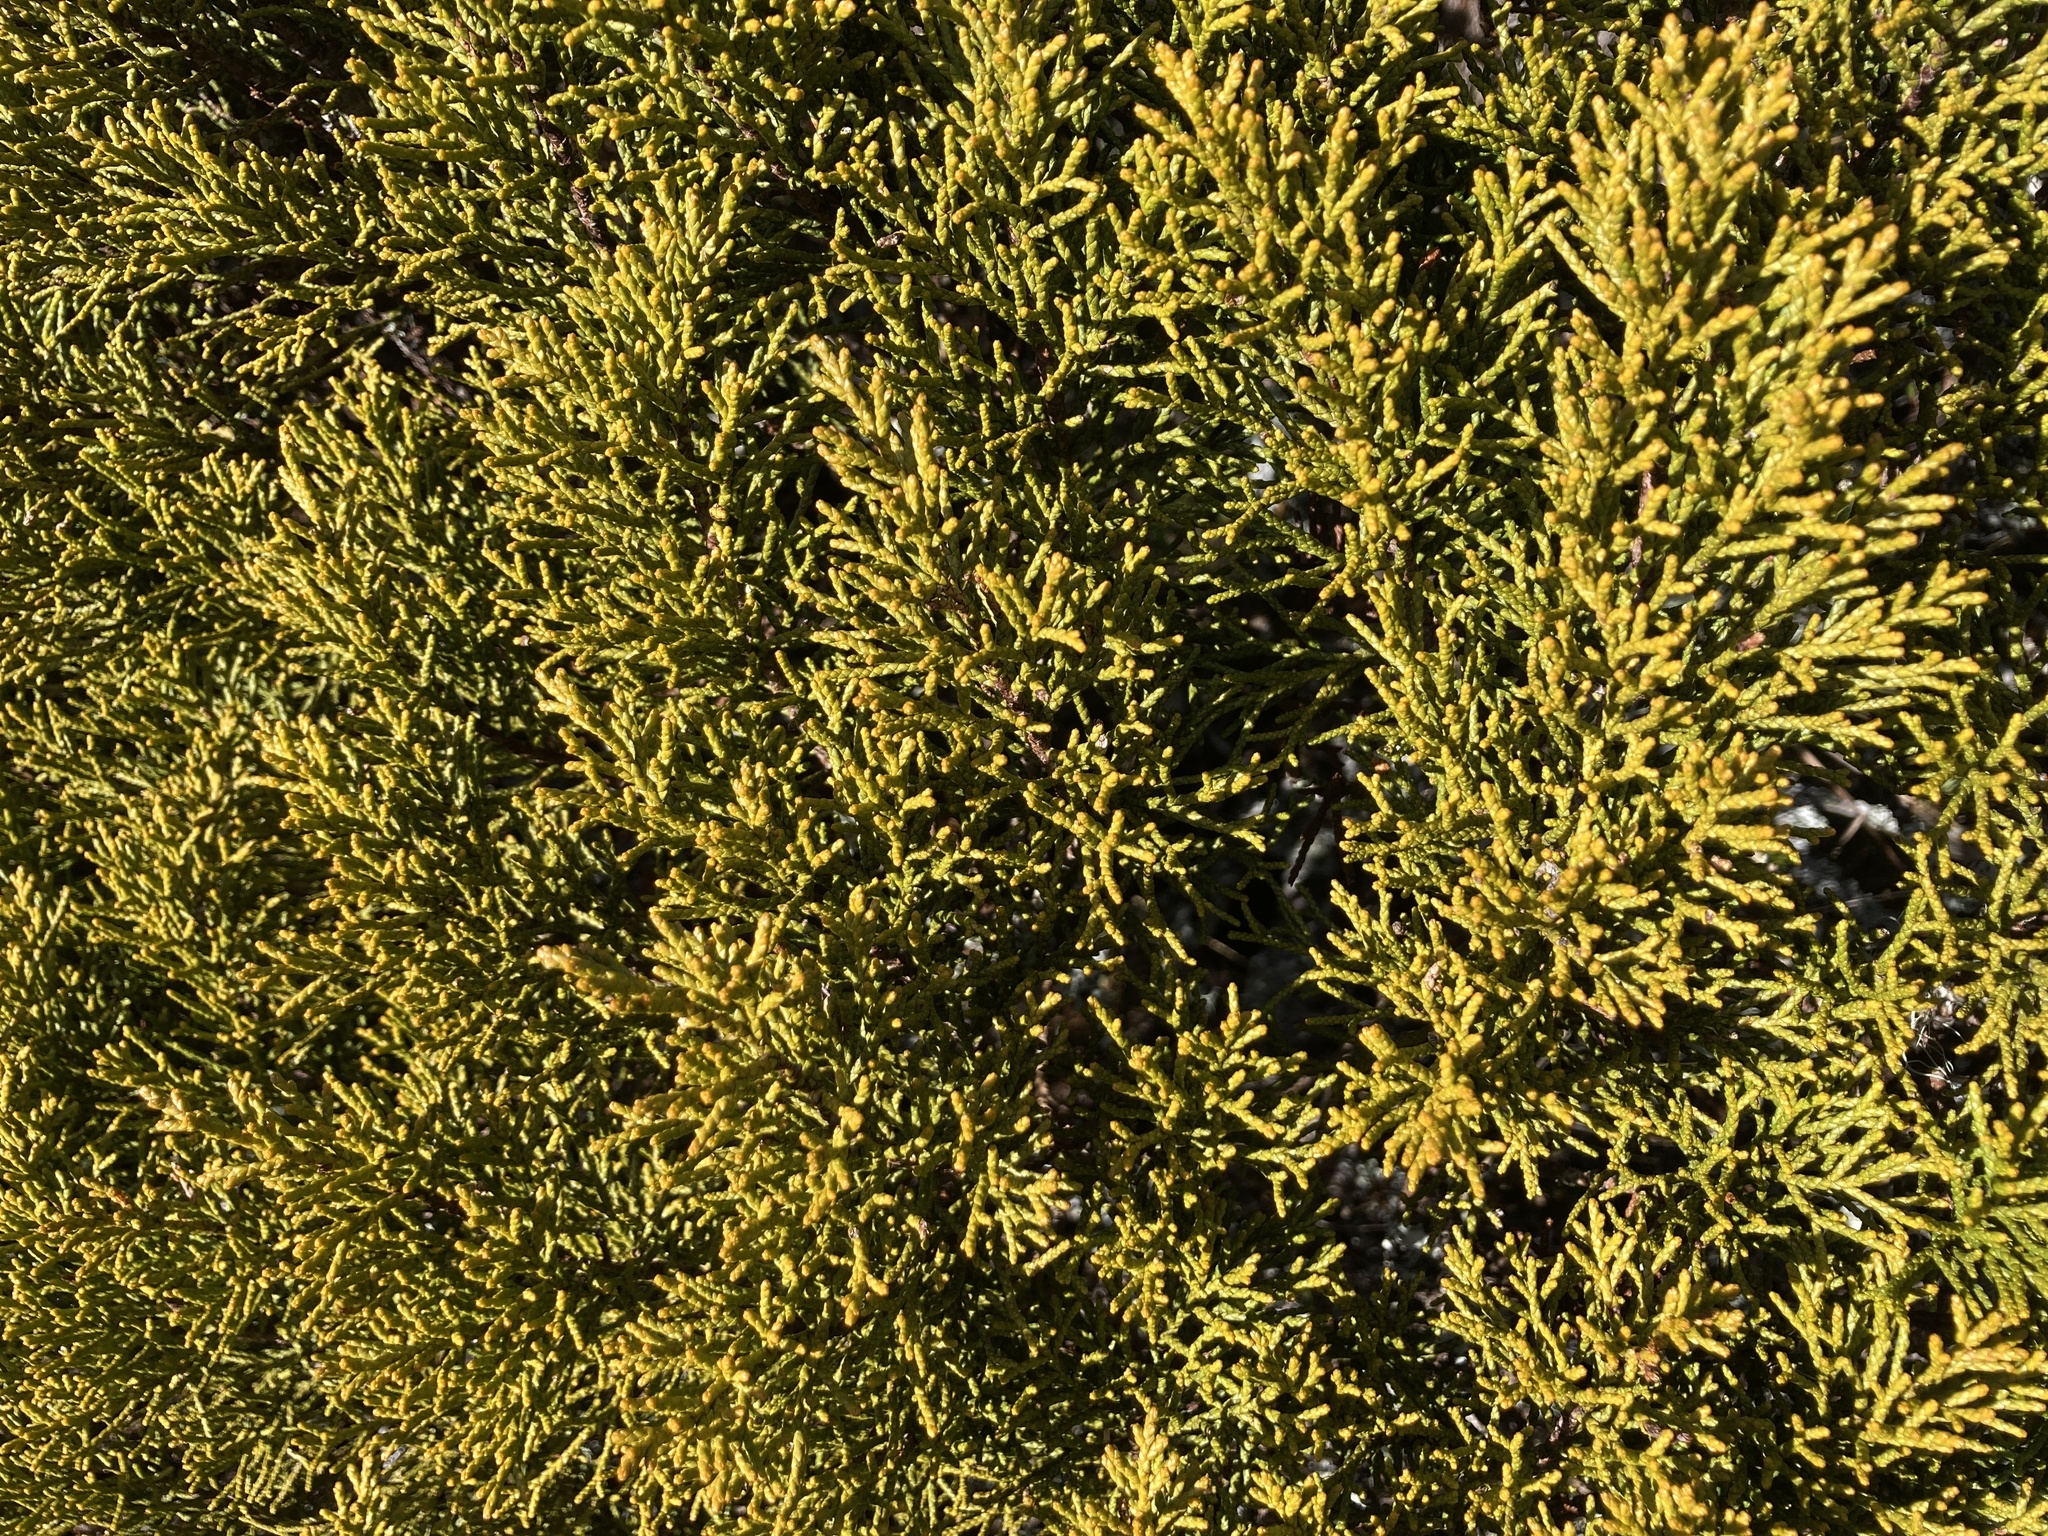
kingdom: Plantae
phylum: Tracheophyta
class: Pinopsida
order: Pinales
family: Podocarpaceae
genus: Halocarpus
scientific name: Halocarpus bidwillii
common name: Bog pine
